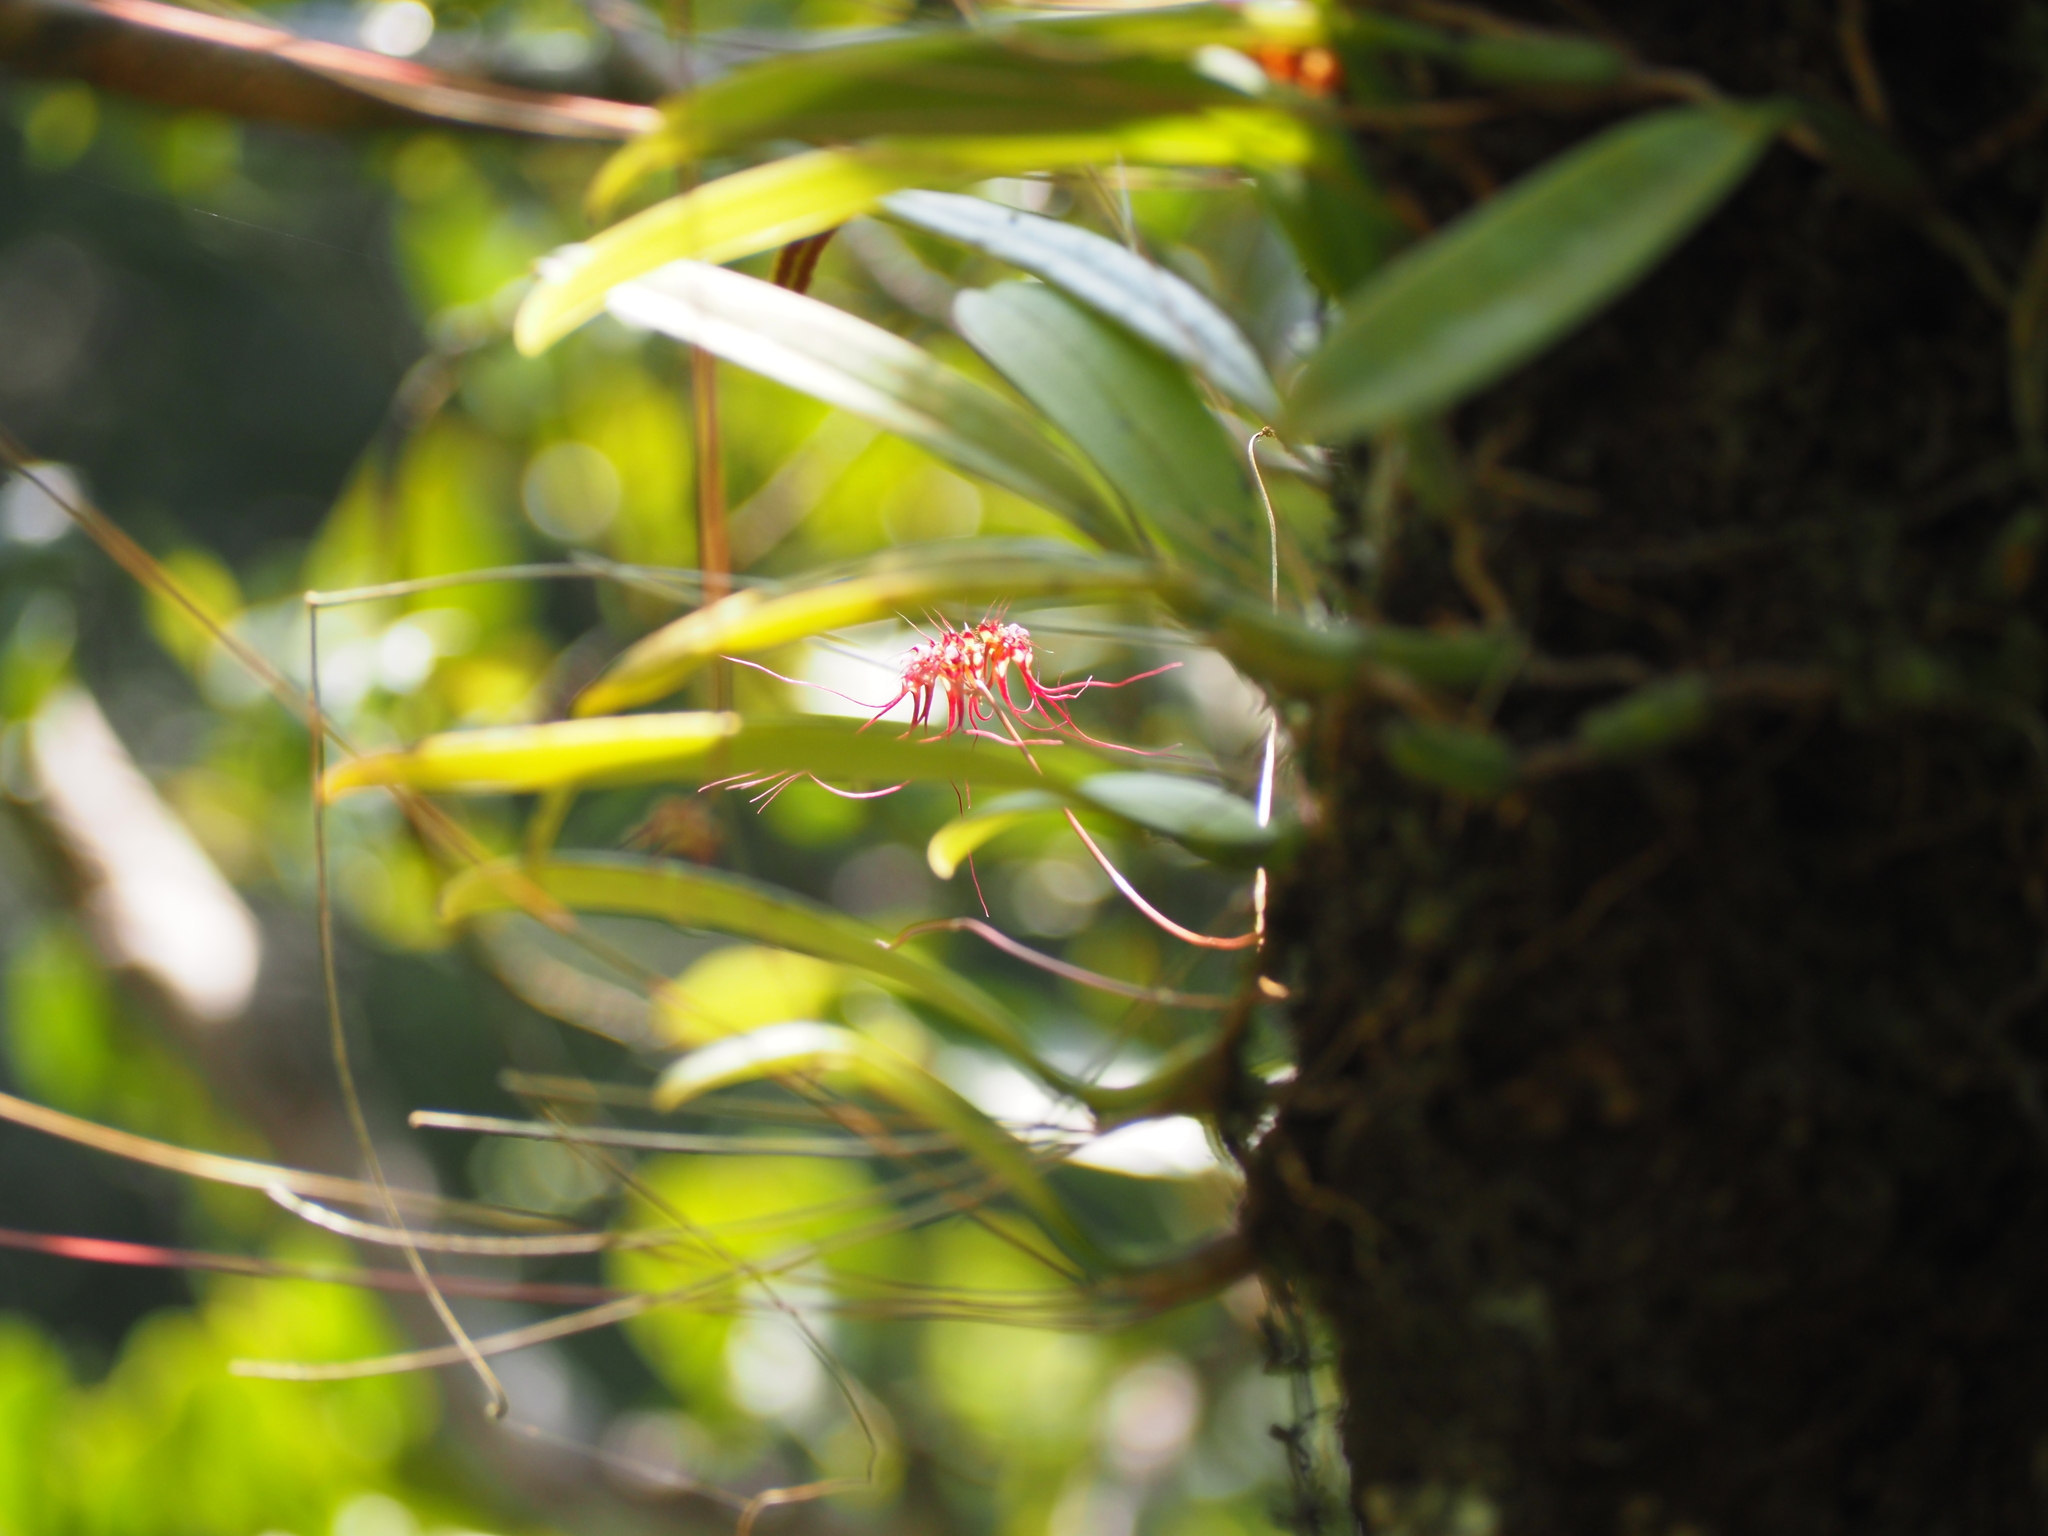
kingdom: Plantae
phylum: Tracheophyta
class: Liliopsida
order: Asparagales
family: Orchidaceae
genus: Bulbophyllum
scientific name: Bulbophyllum gracillimum
